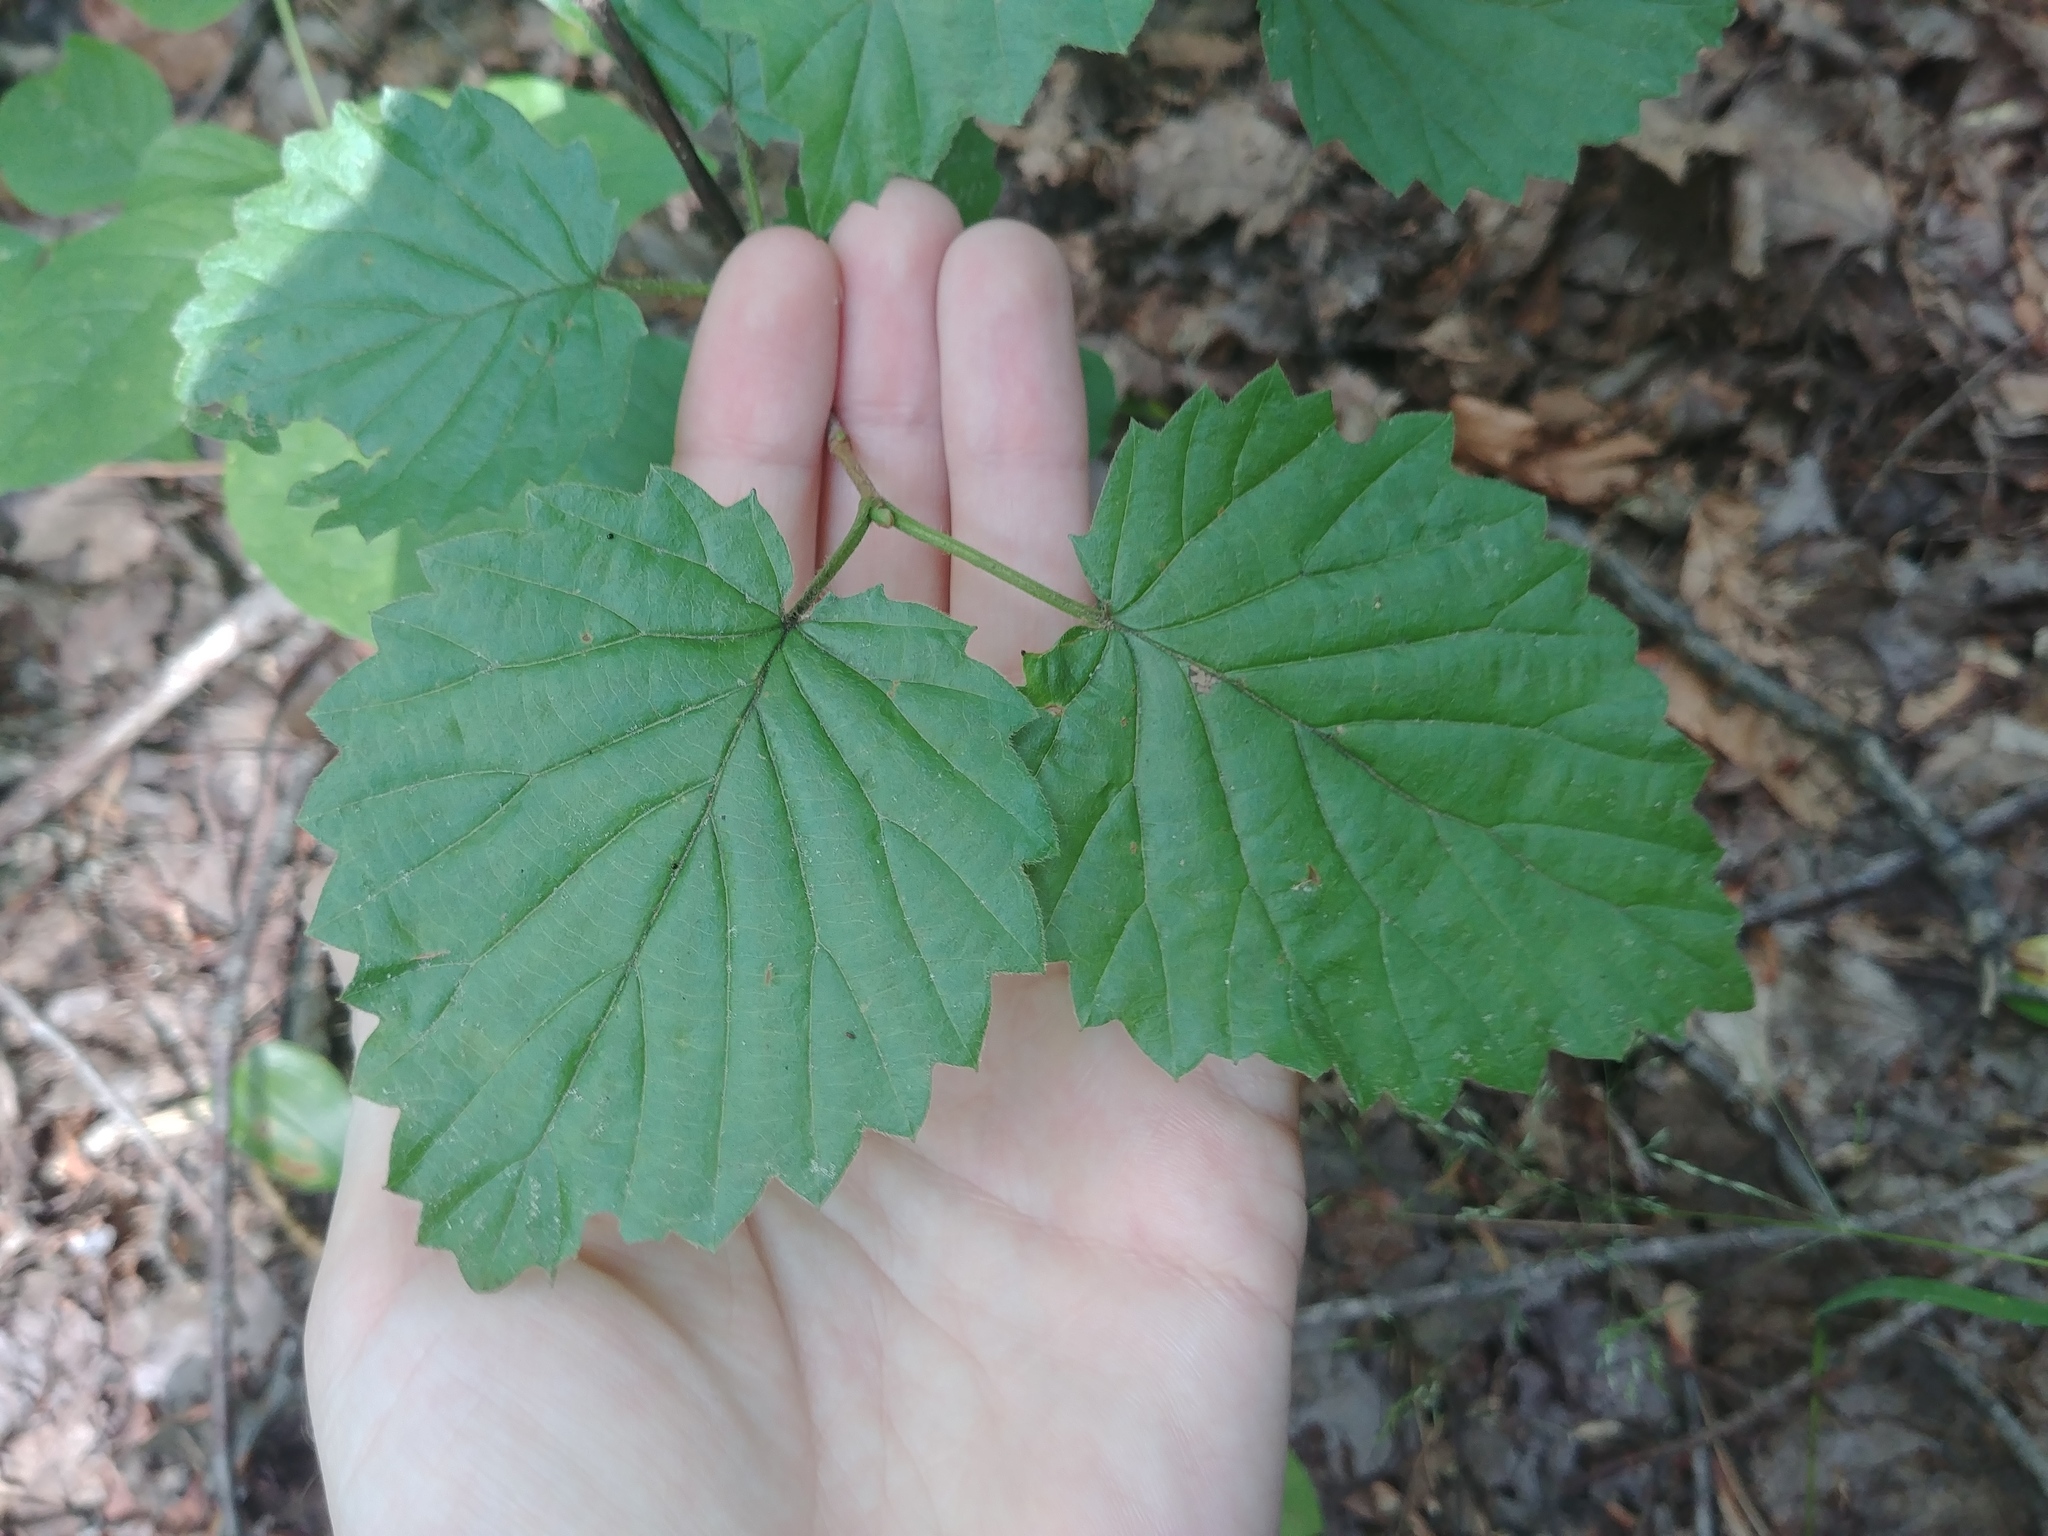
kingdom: Plantae
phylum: Tracheophyta
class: Magnoliopsida
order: Dipsacales
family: Viburnaceae
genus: Viburnum
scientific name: Viburnum dentatum
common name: Arrow-wood
